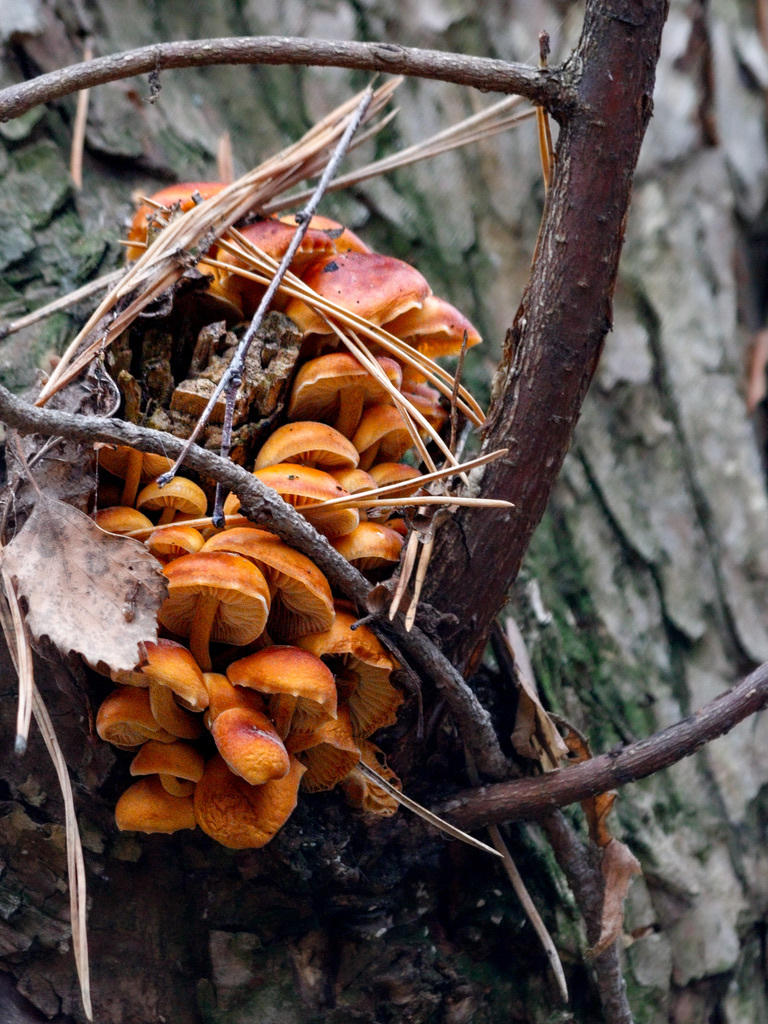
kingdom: Fungi
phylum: Basidiomycota
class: Agaricomycetes
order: Agaricales
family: Physalacriaceae
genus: Flammulina
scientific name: Flammulina
